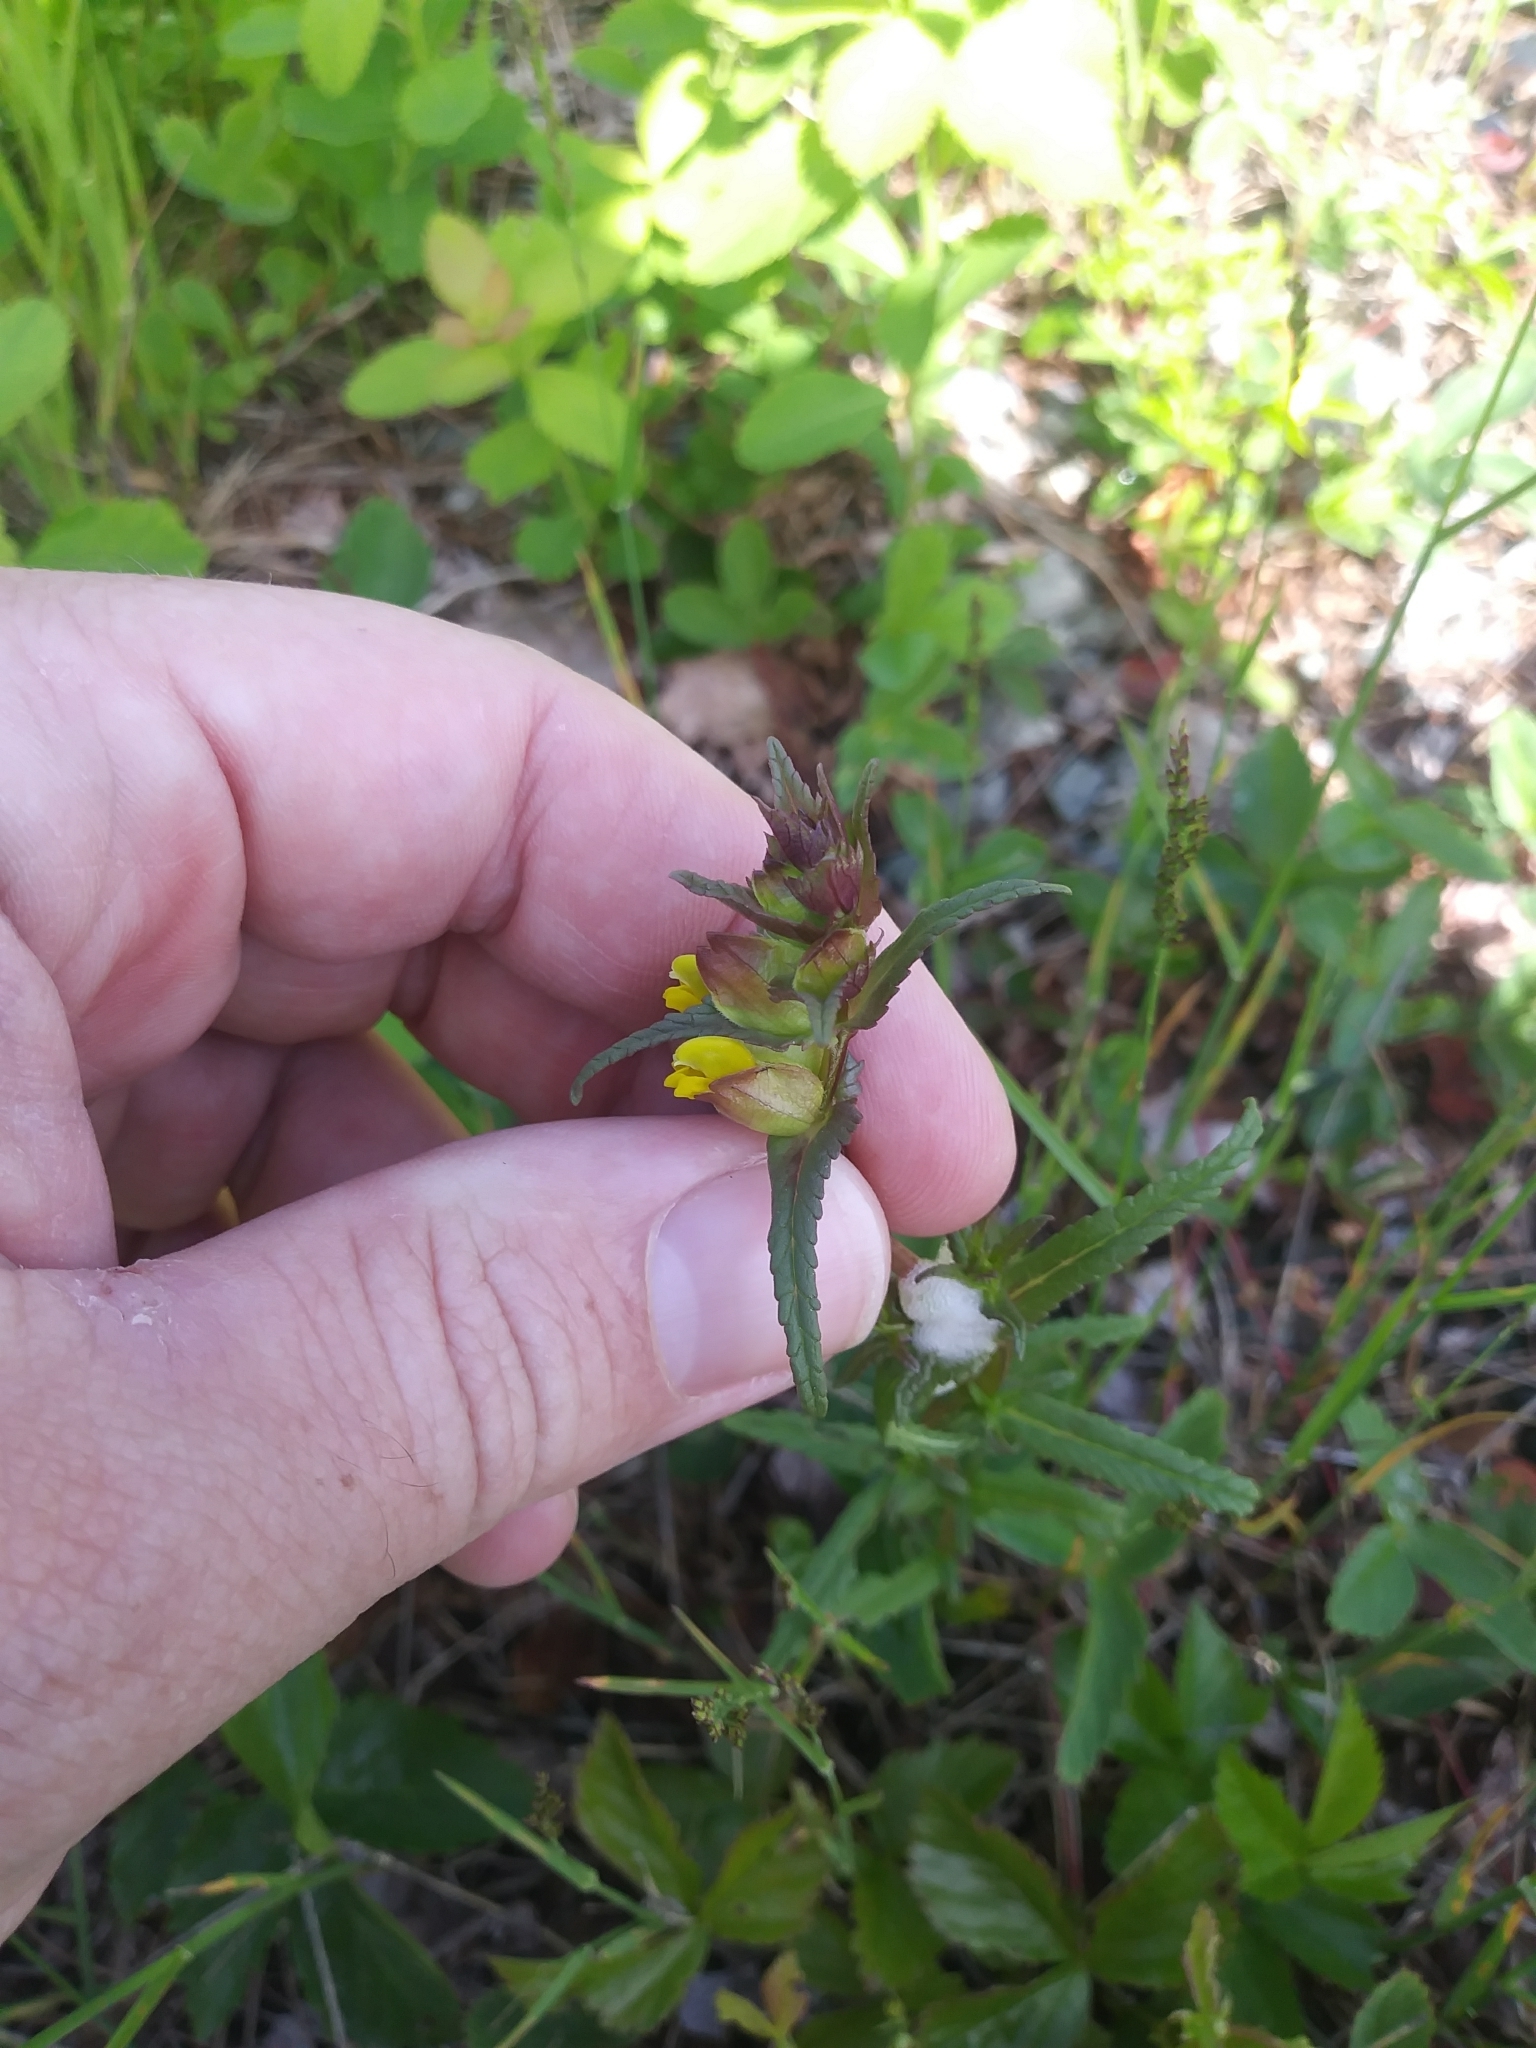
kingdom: Plantae
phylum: Tracheophyta
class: Magnoliopsida
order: Lamiales
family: Orobanchaceae
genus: Rhinanthus
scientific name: Rhinanthus minor
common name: Yellow-rattle
